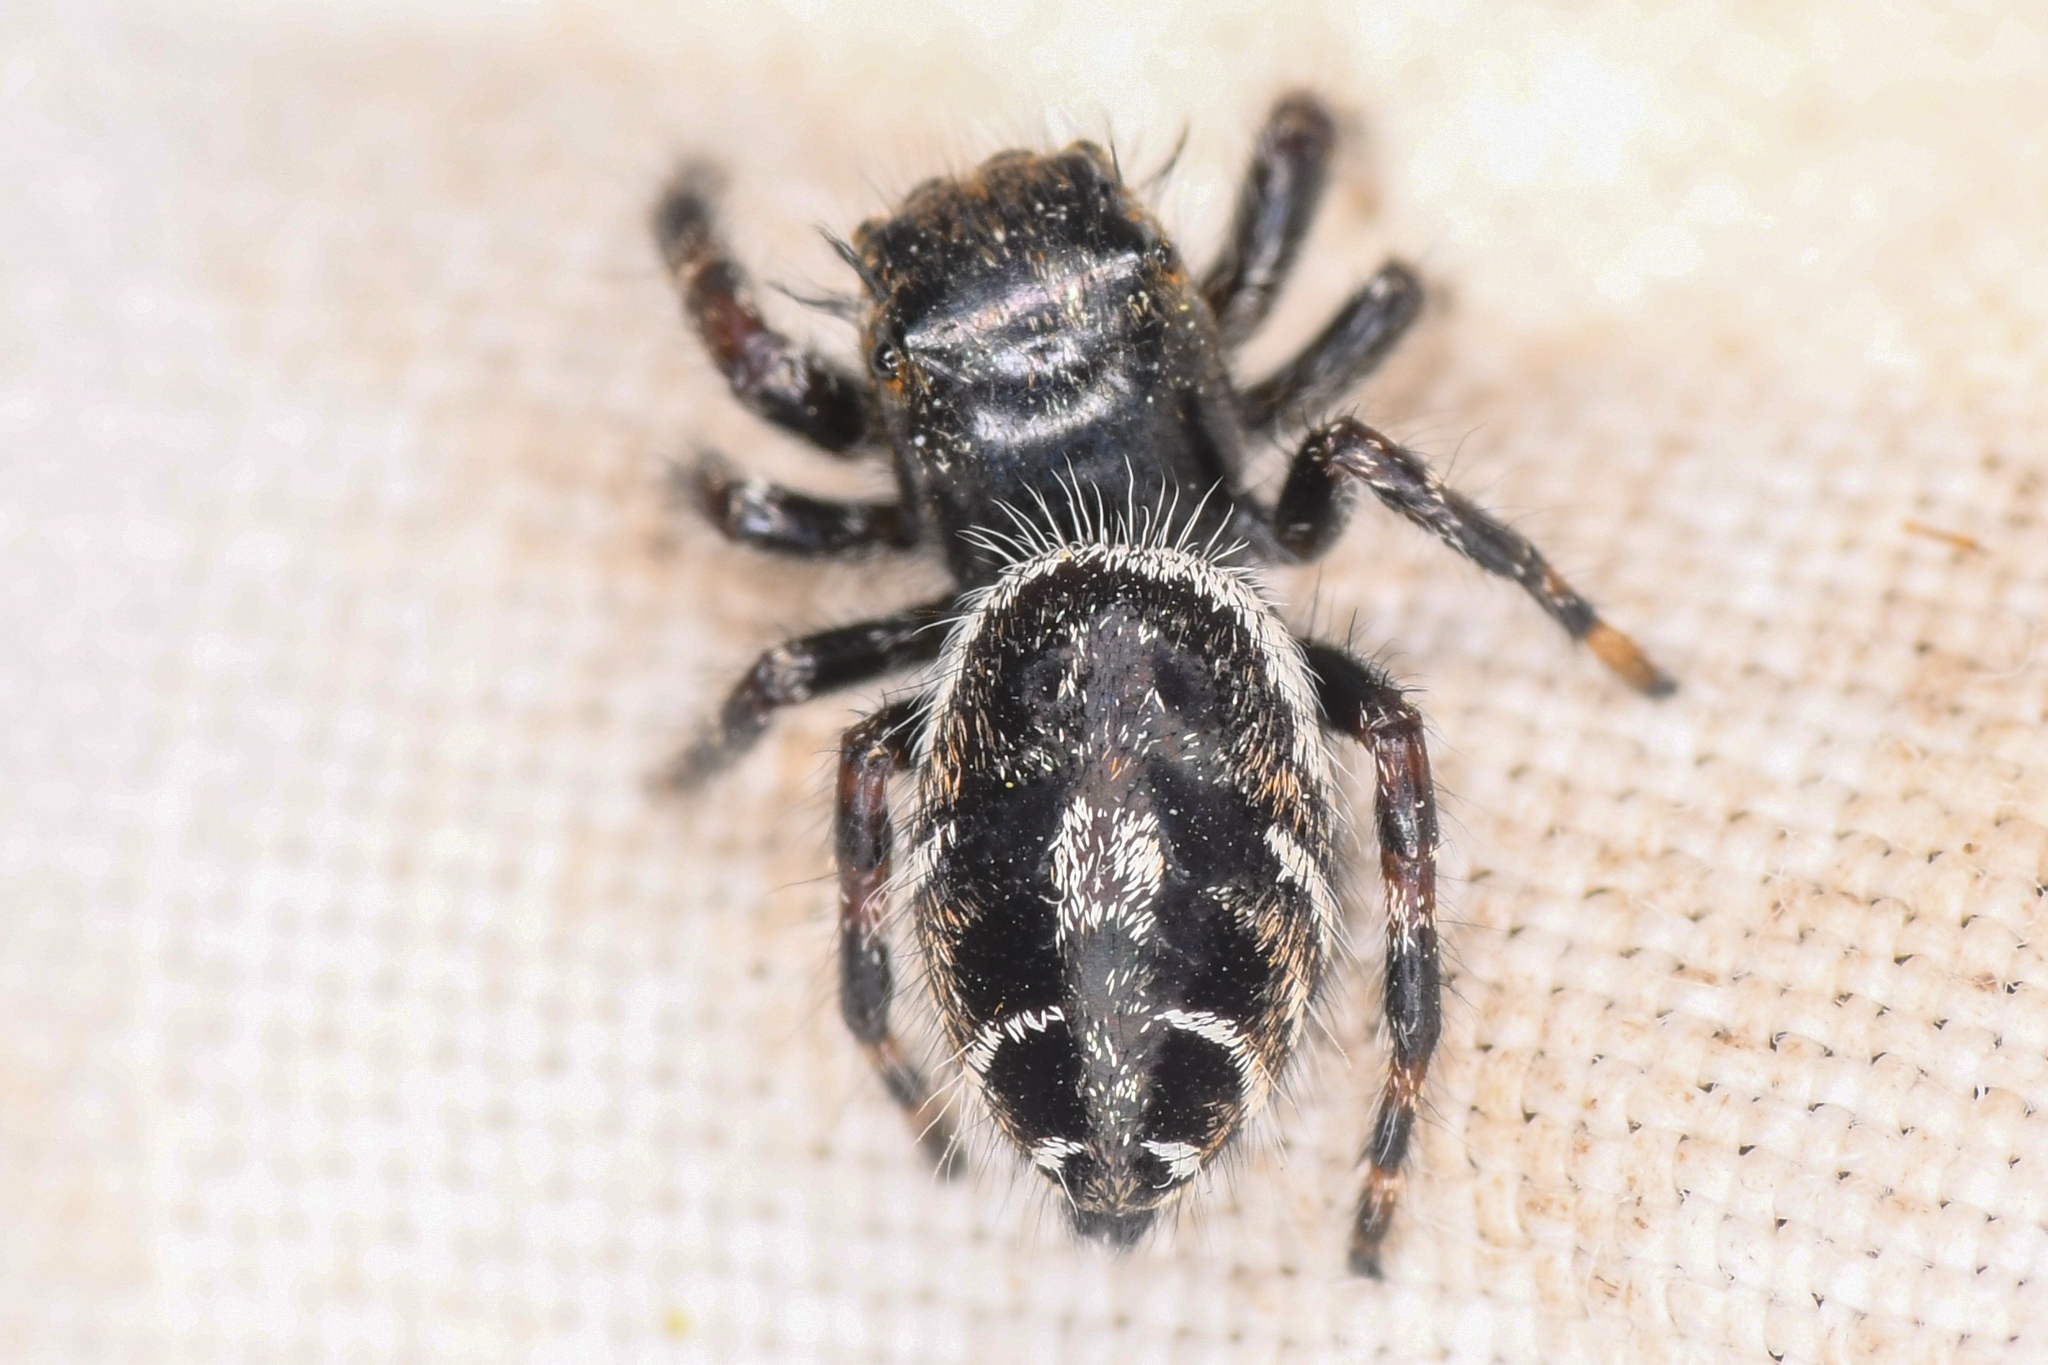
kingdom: Animalia
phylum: Arthropoda
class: Arachnida
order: Araneae
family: Salticidae
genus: Phidippus
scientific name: Phidippus comatus
